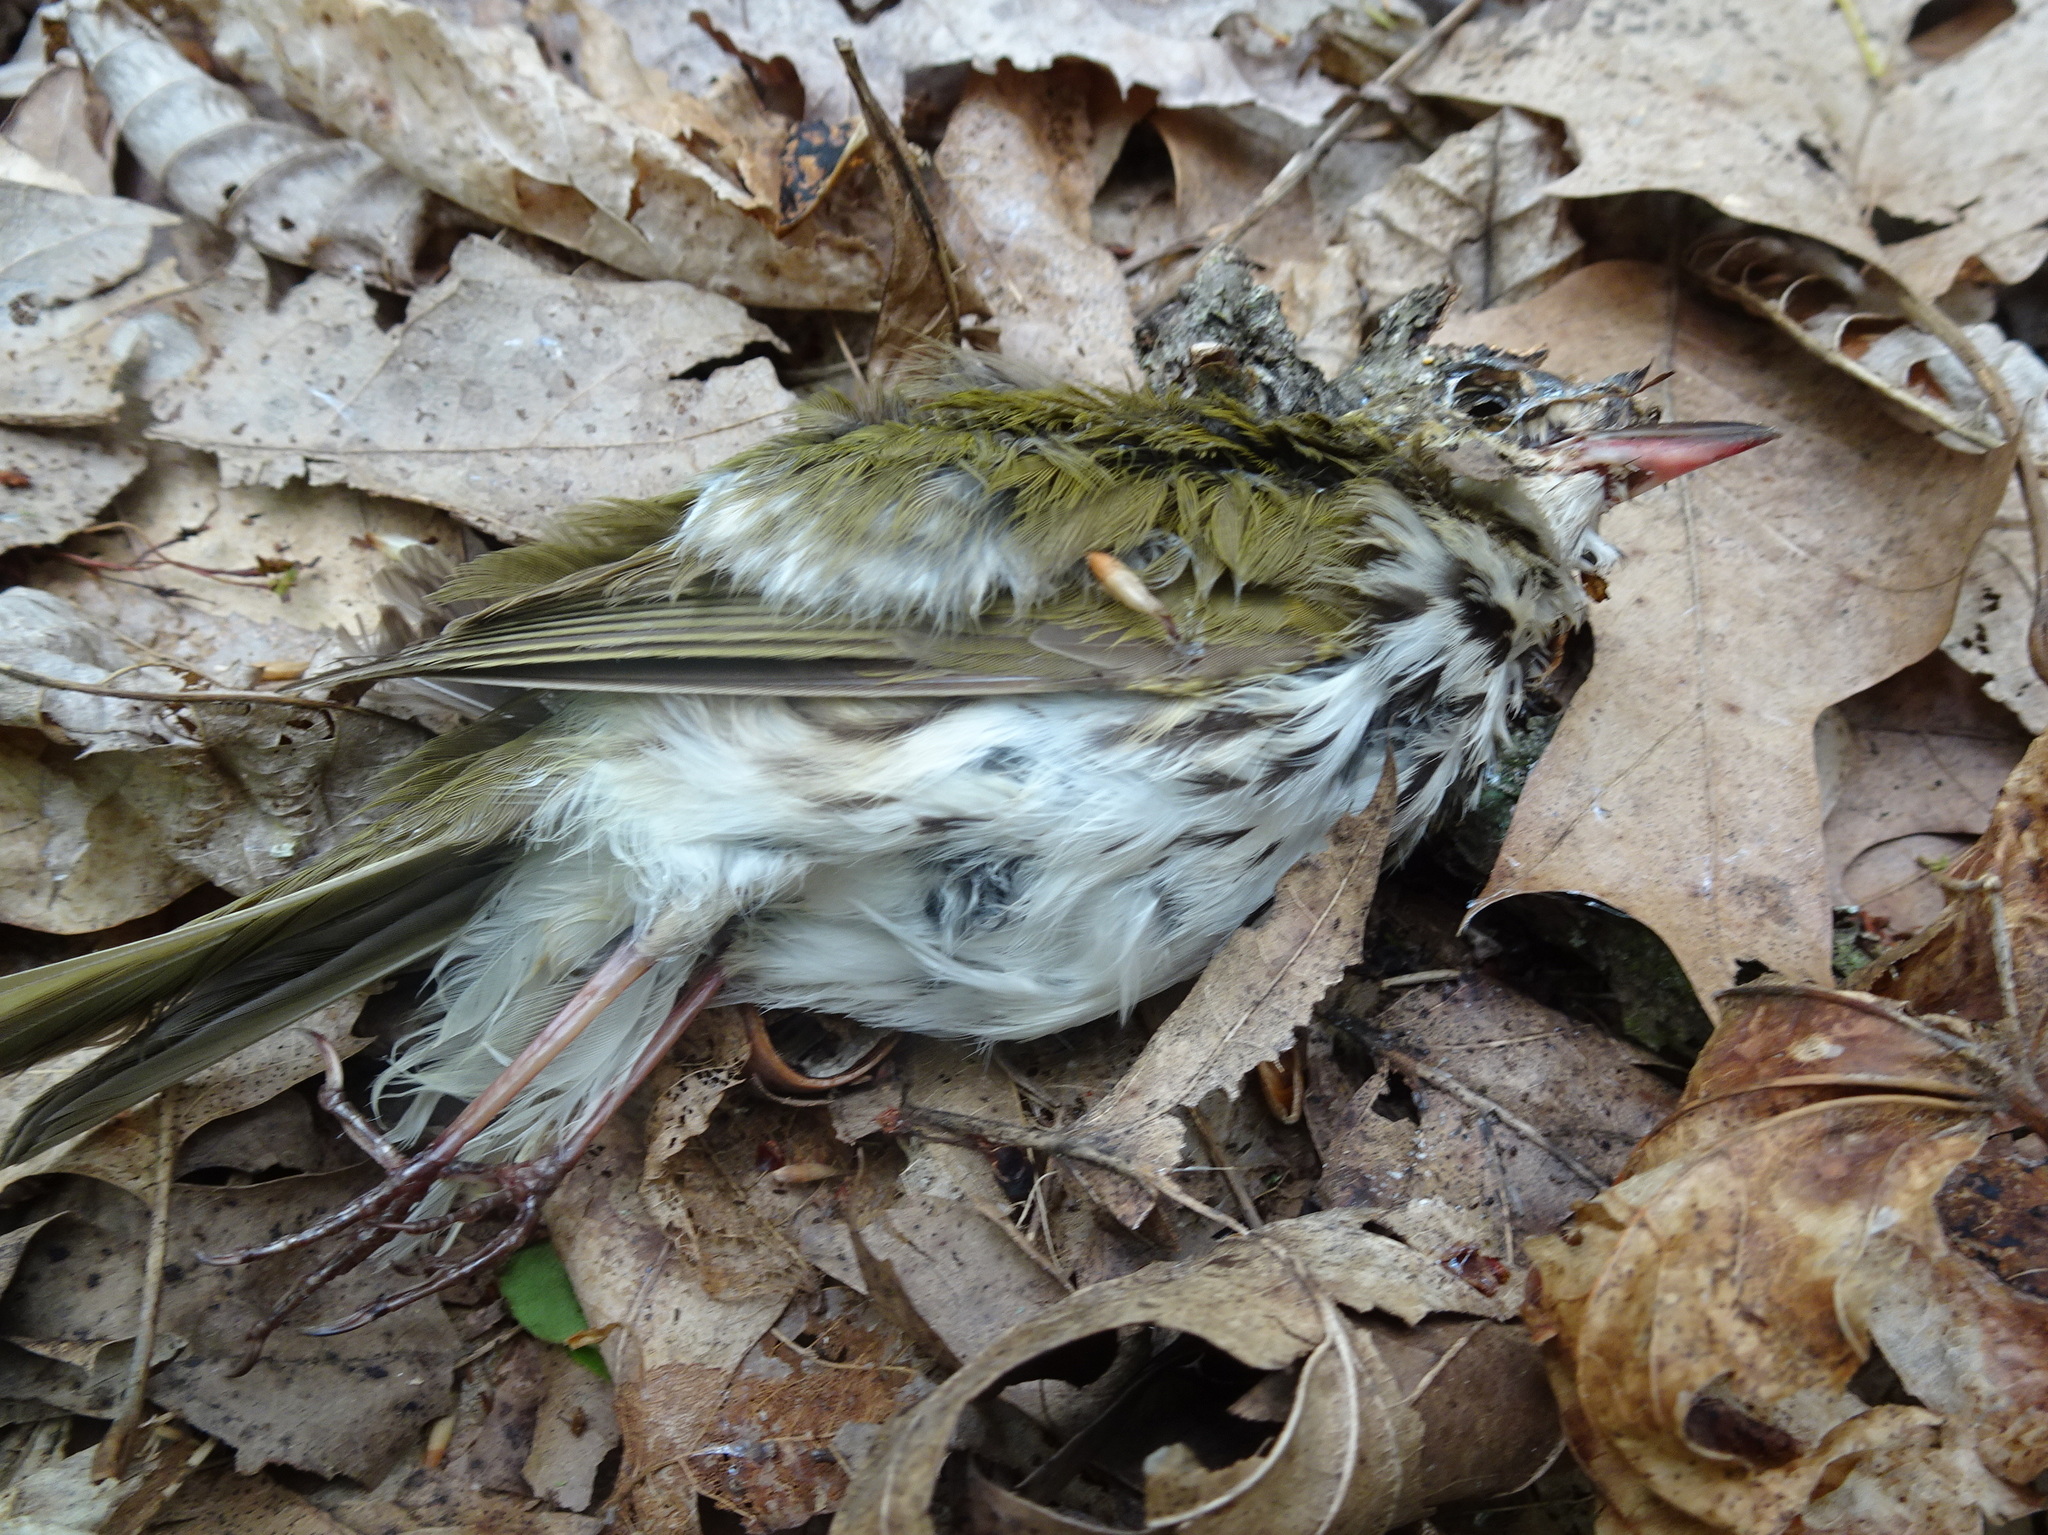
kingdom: Animalia
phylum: Chordata
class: Aves
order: Passeriformes
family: Parulidae
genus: Seiurus
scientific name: Seiurus aurocapilla
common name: Ovenbird
